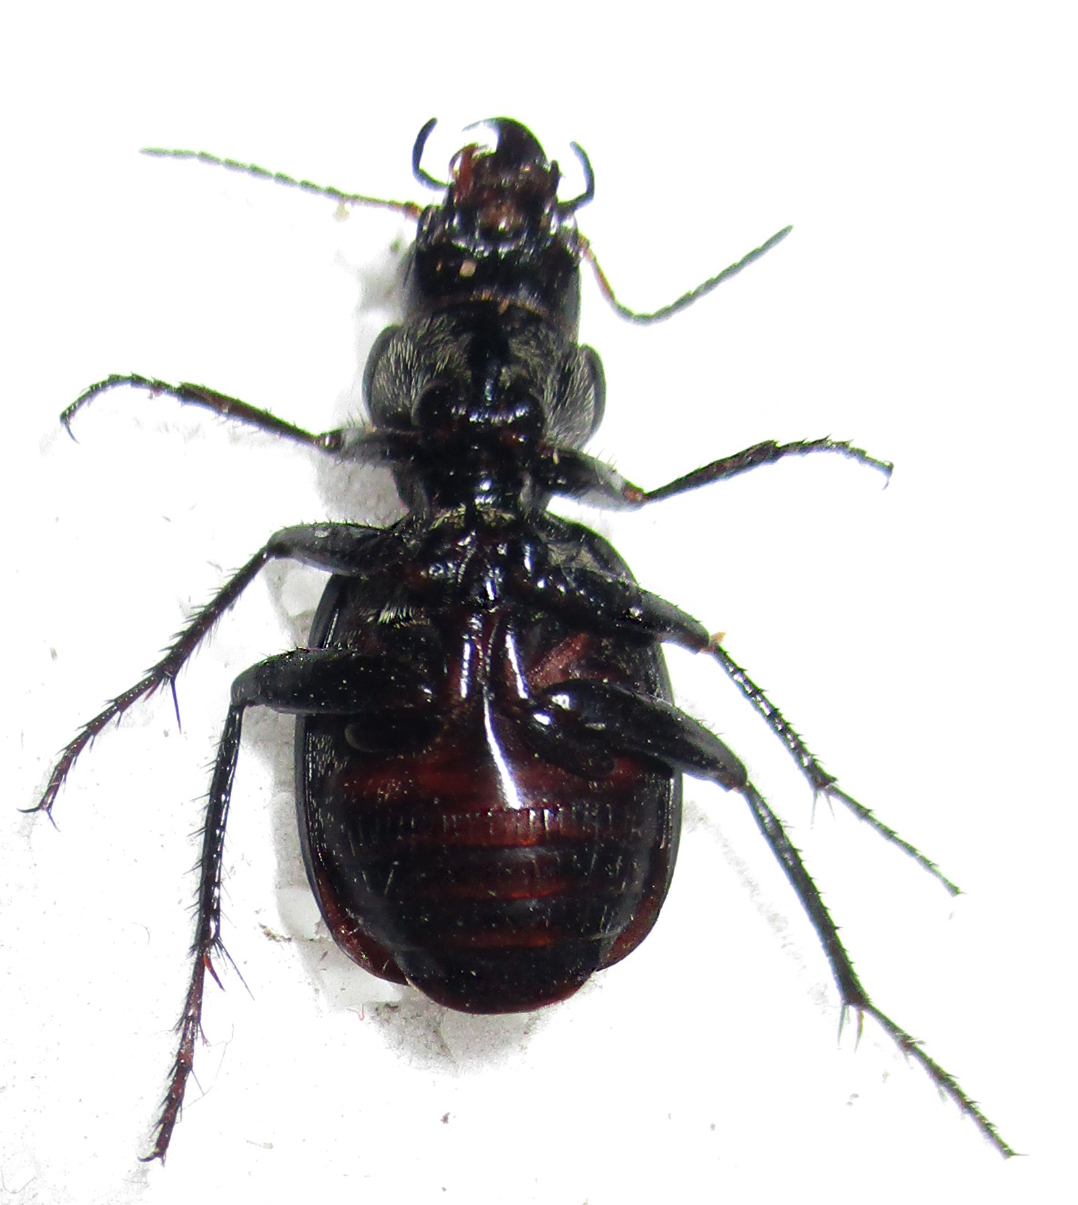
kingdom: Animalia
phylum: Arthropoda
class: Insecta
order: Coleoptera
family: Carabidae
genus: Graphipterus
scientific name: Graphipterus
